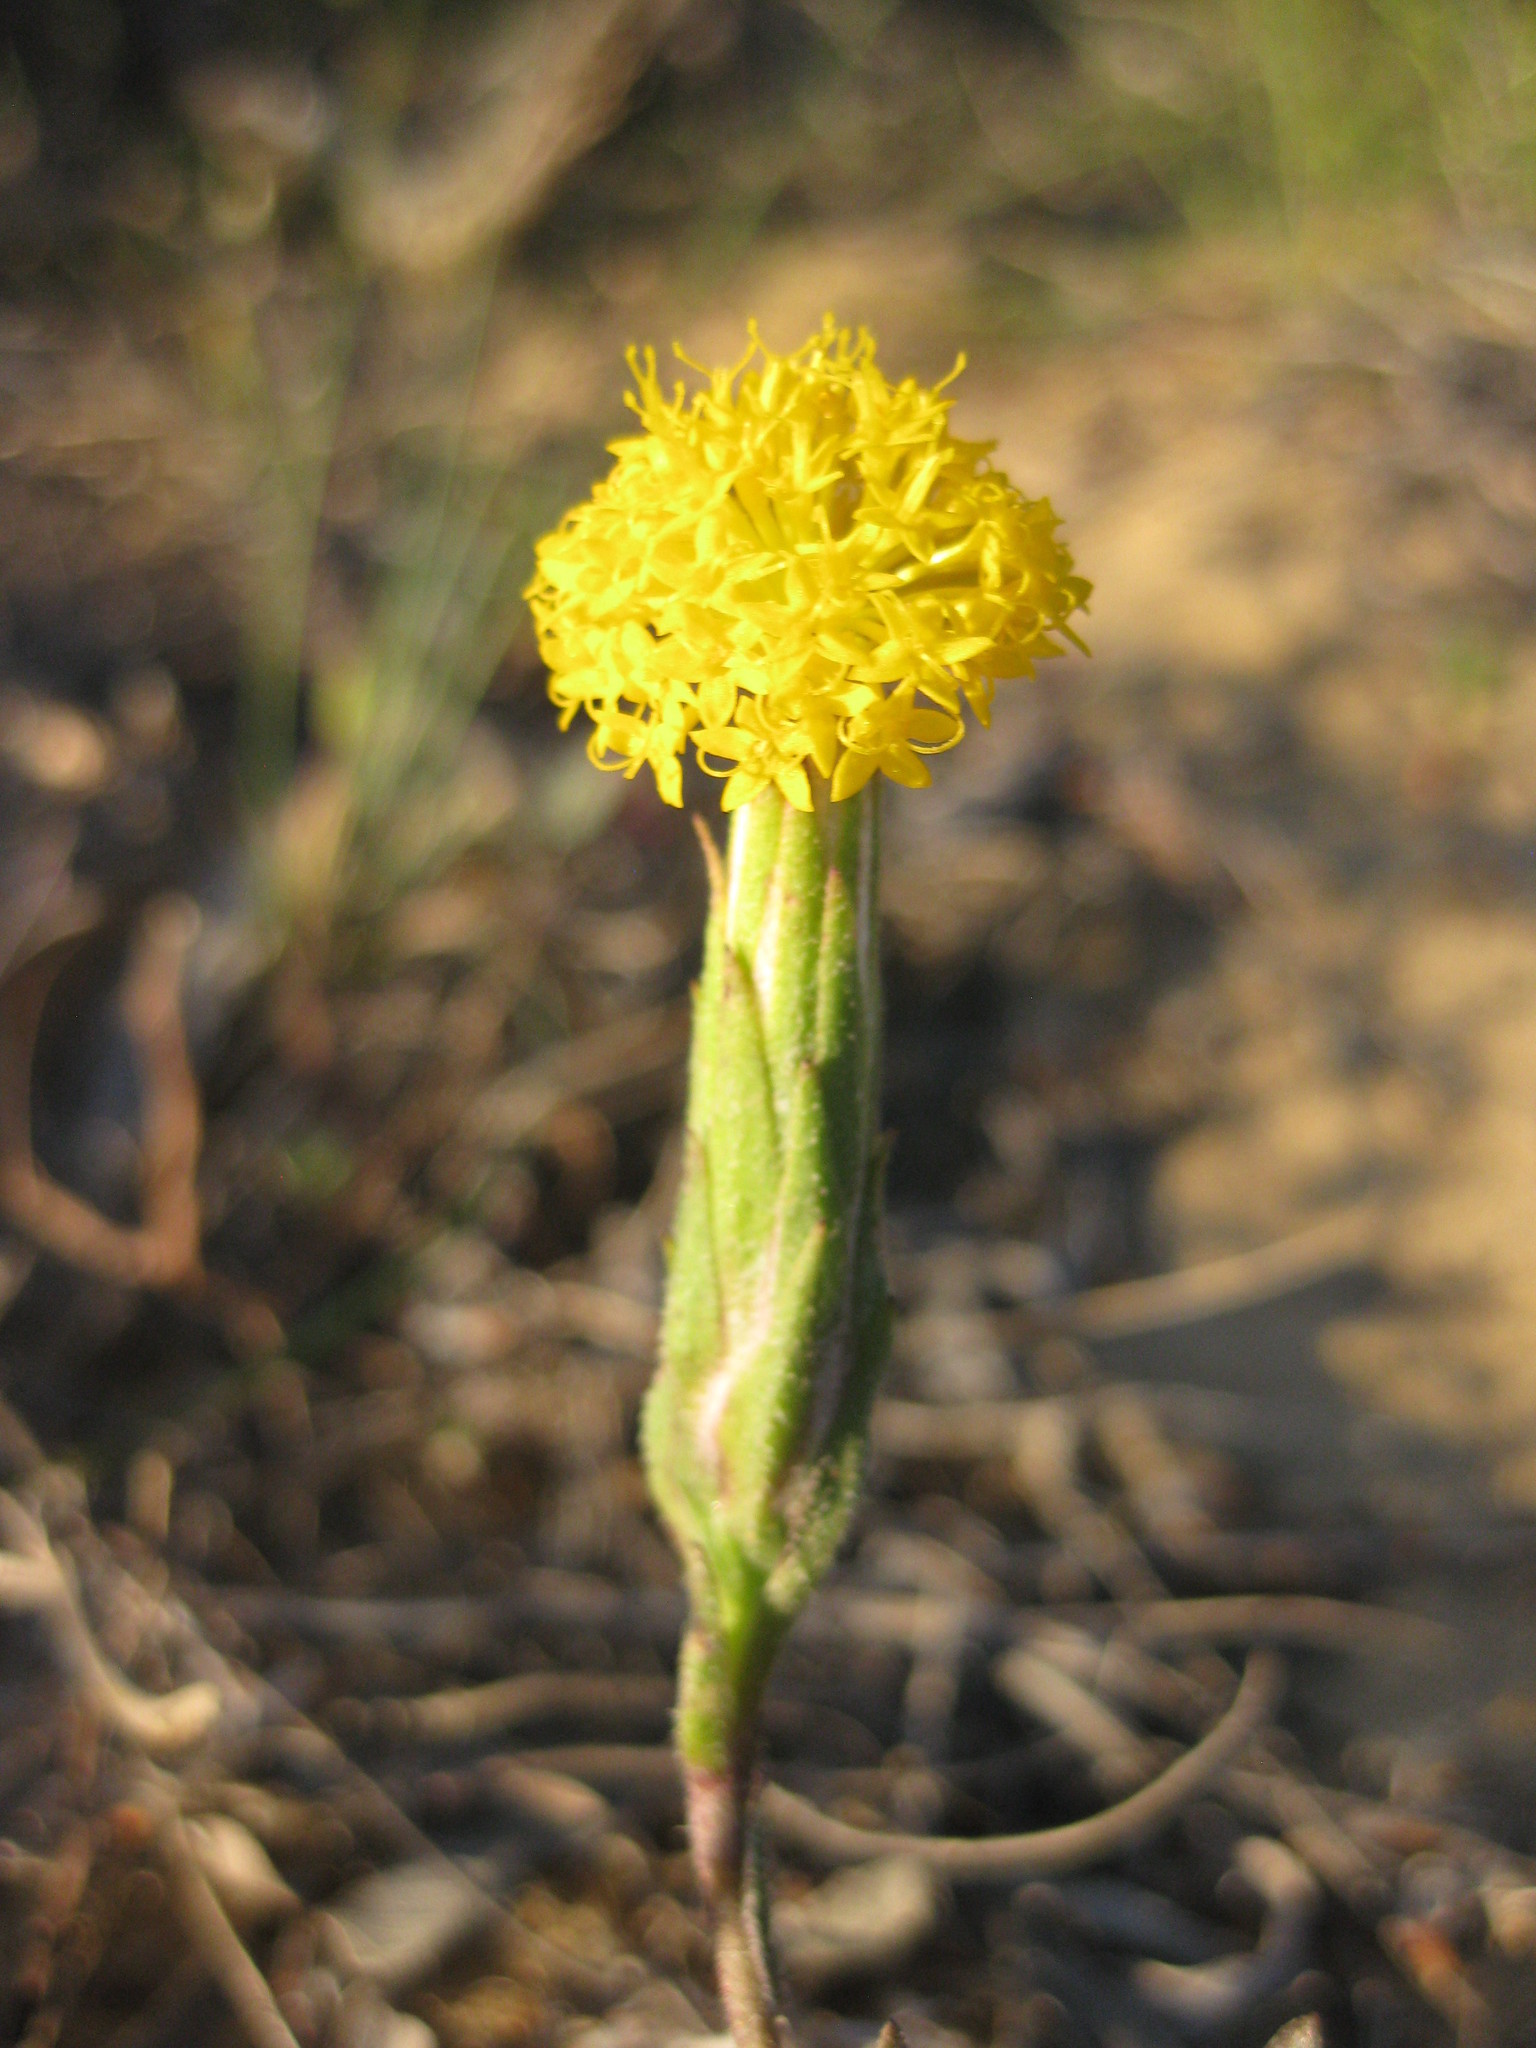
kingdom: Plantae
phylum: Tracheophyta
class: Magnoliopsida
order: Asterales
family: Asteraceae
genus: Podotheca
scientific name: Podotheca gnaphalioides
